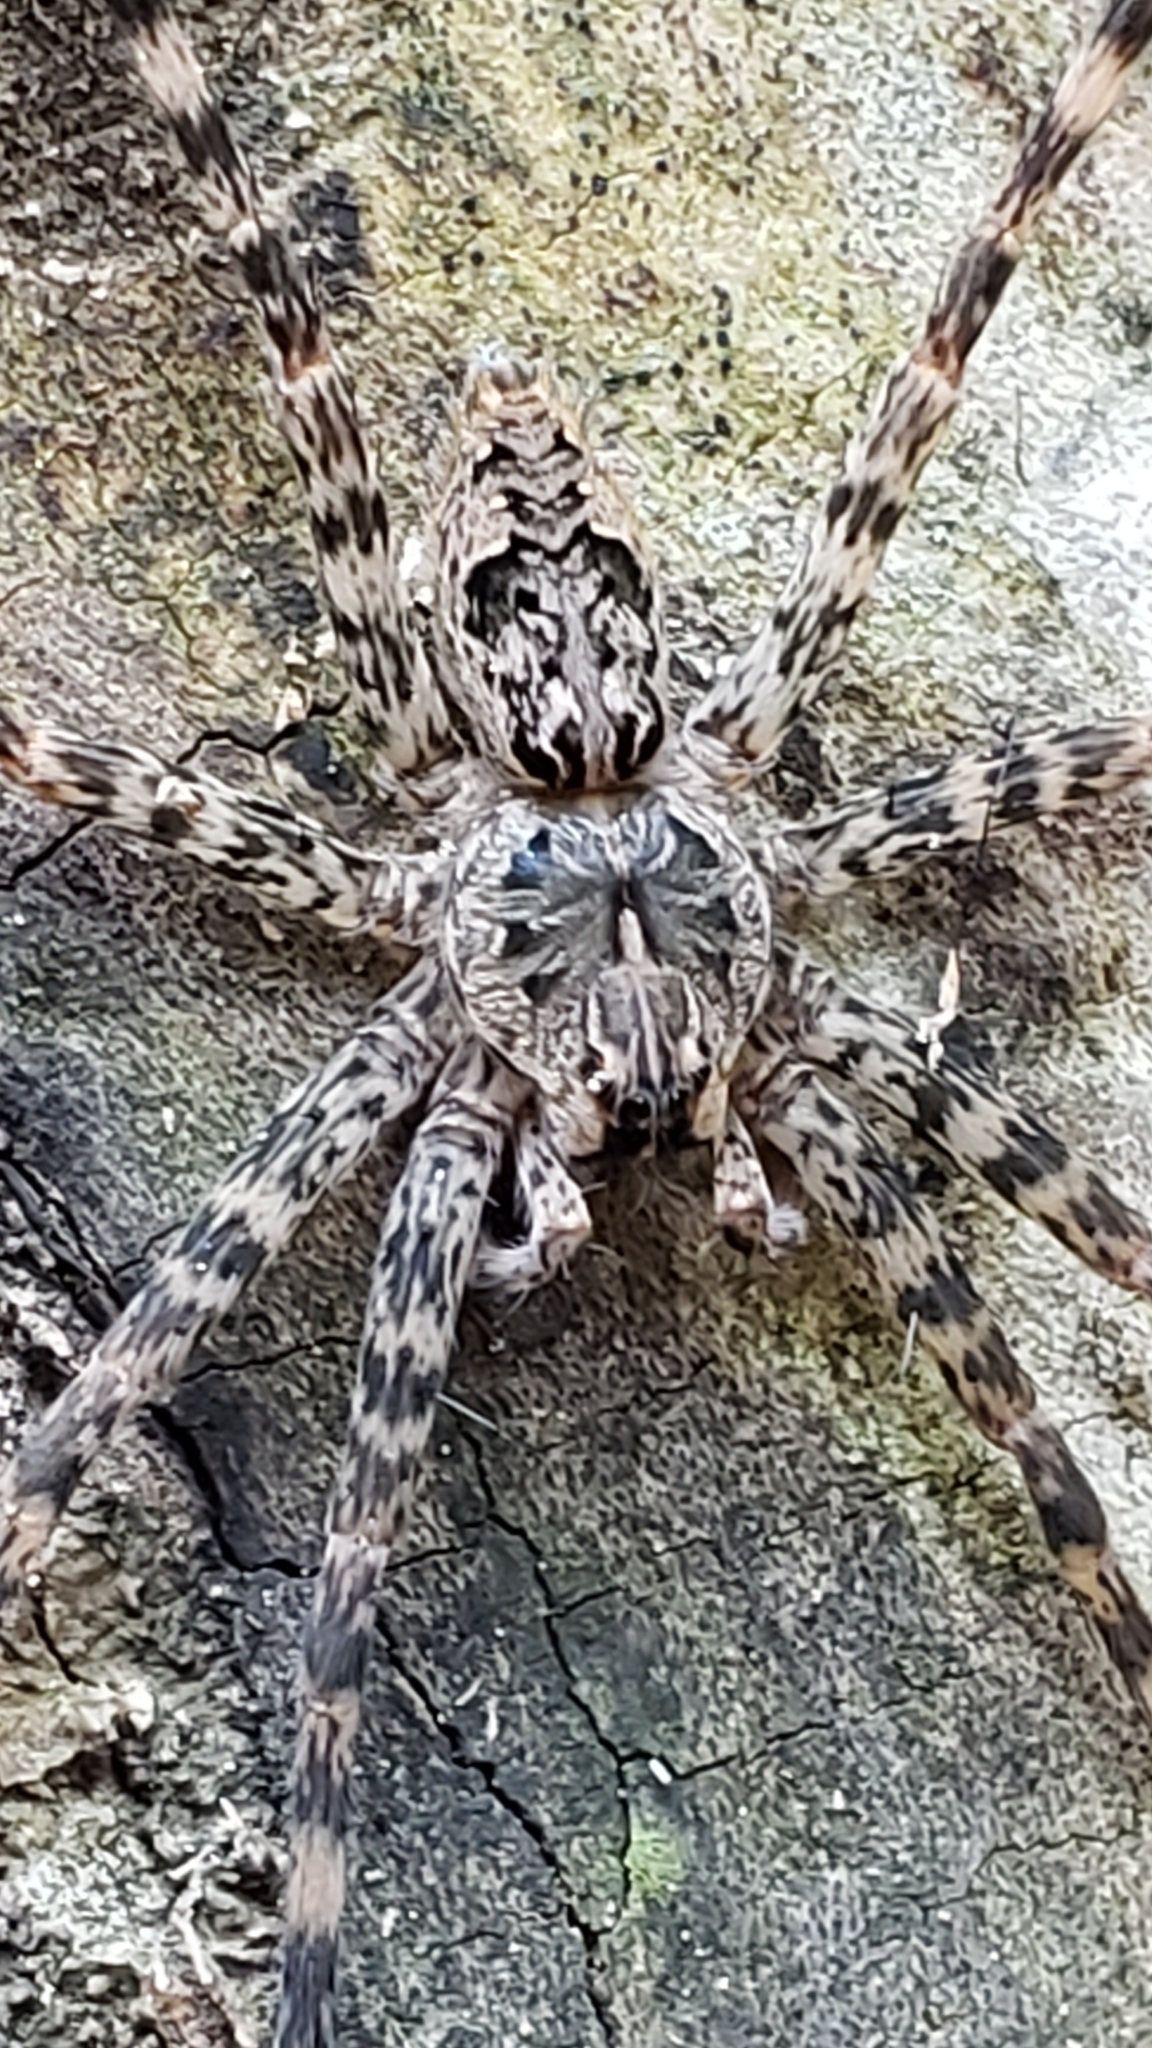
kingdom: Animalia
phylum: Arthropoda
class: Arachnida
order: Araneae
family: Pisauridae
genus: Dolomedes
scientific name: Dolomedes tenebrosus
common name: Dark fishing spider
